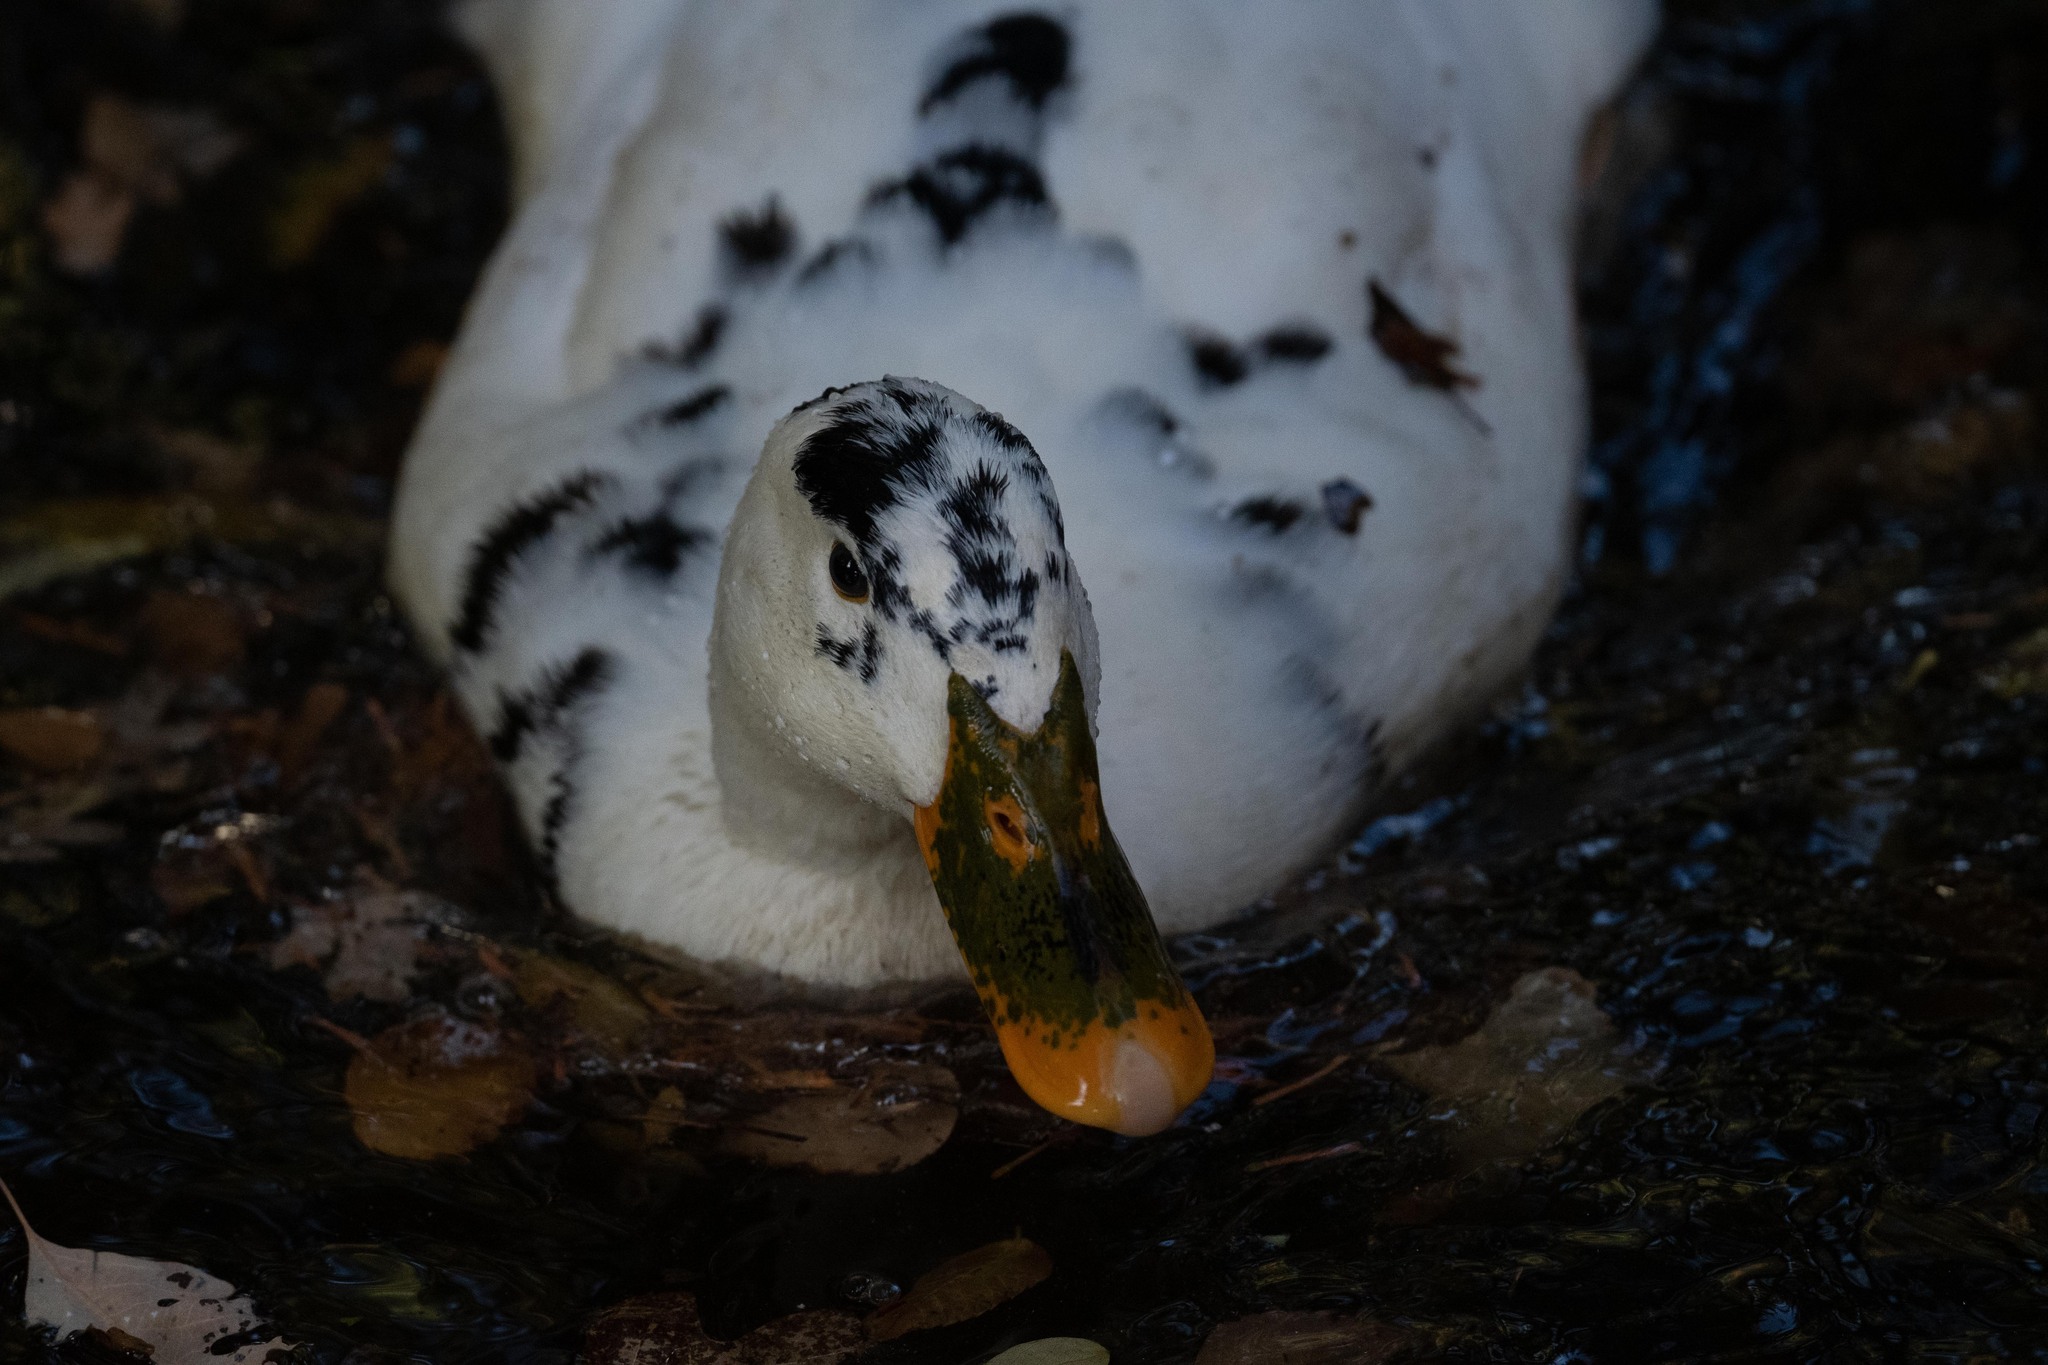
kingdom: Animalia
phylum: Chordata
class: Aves
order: Anseriformes
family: Anatidae
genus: Anas
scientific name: Anas platyrhynchos
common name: Mallard
